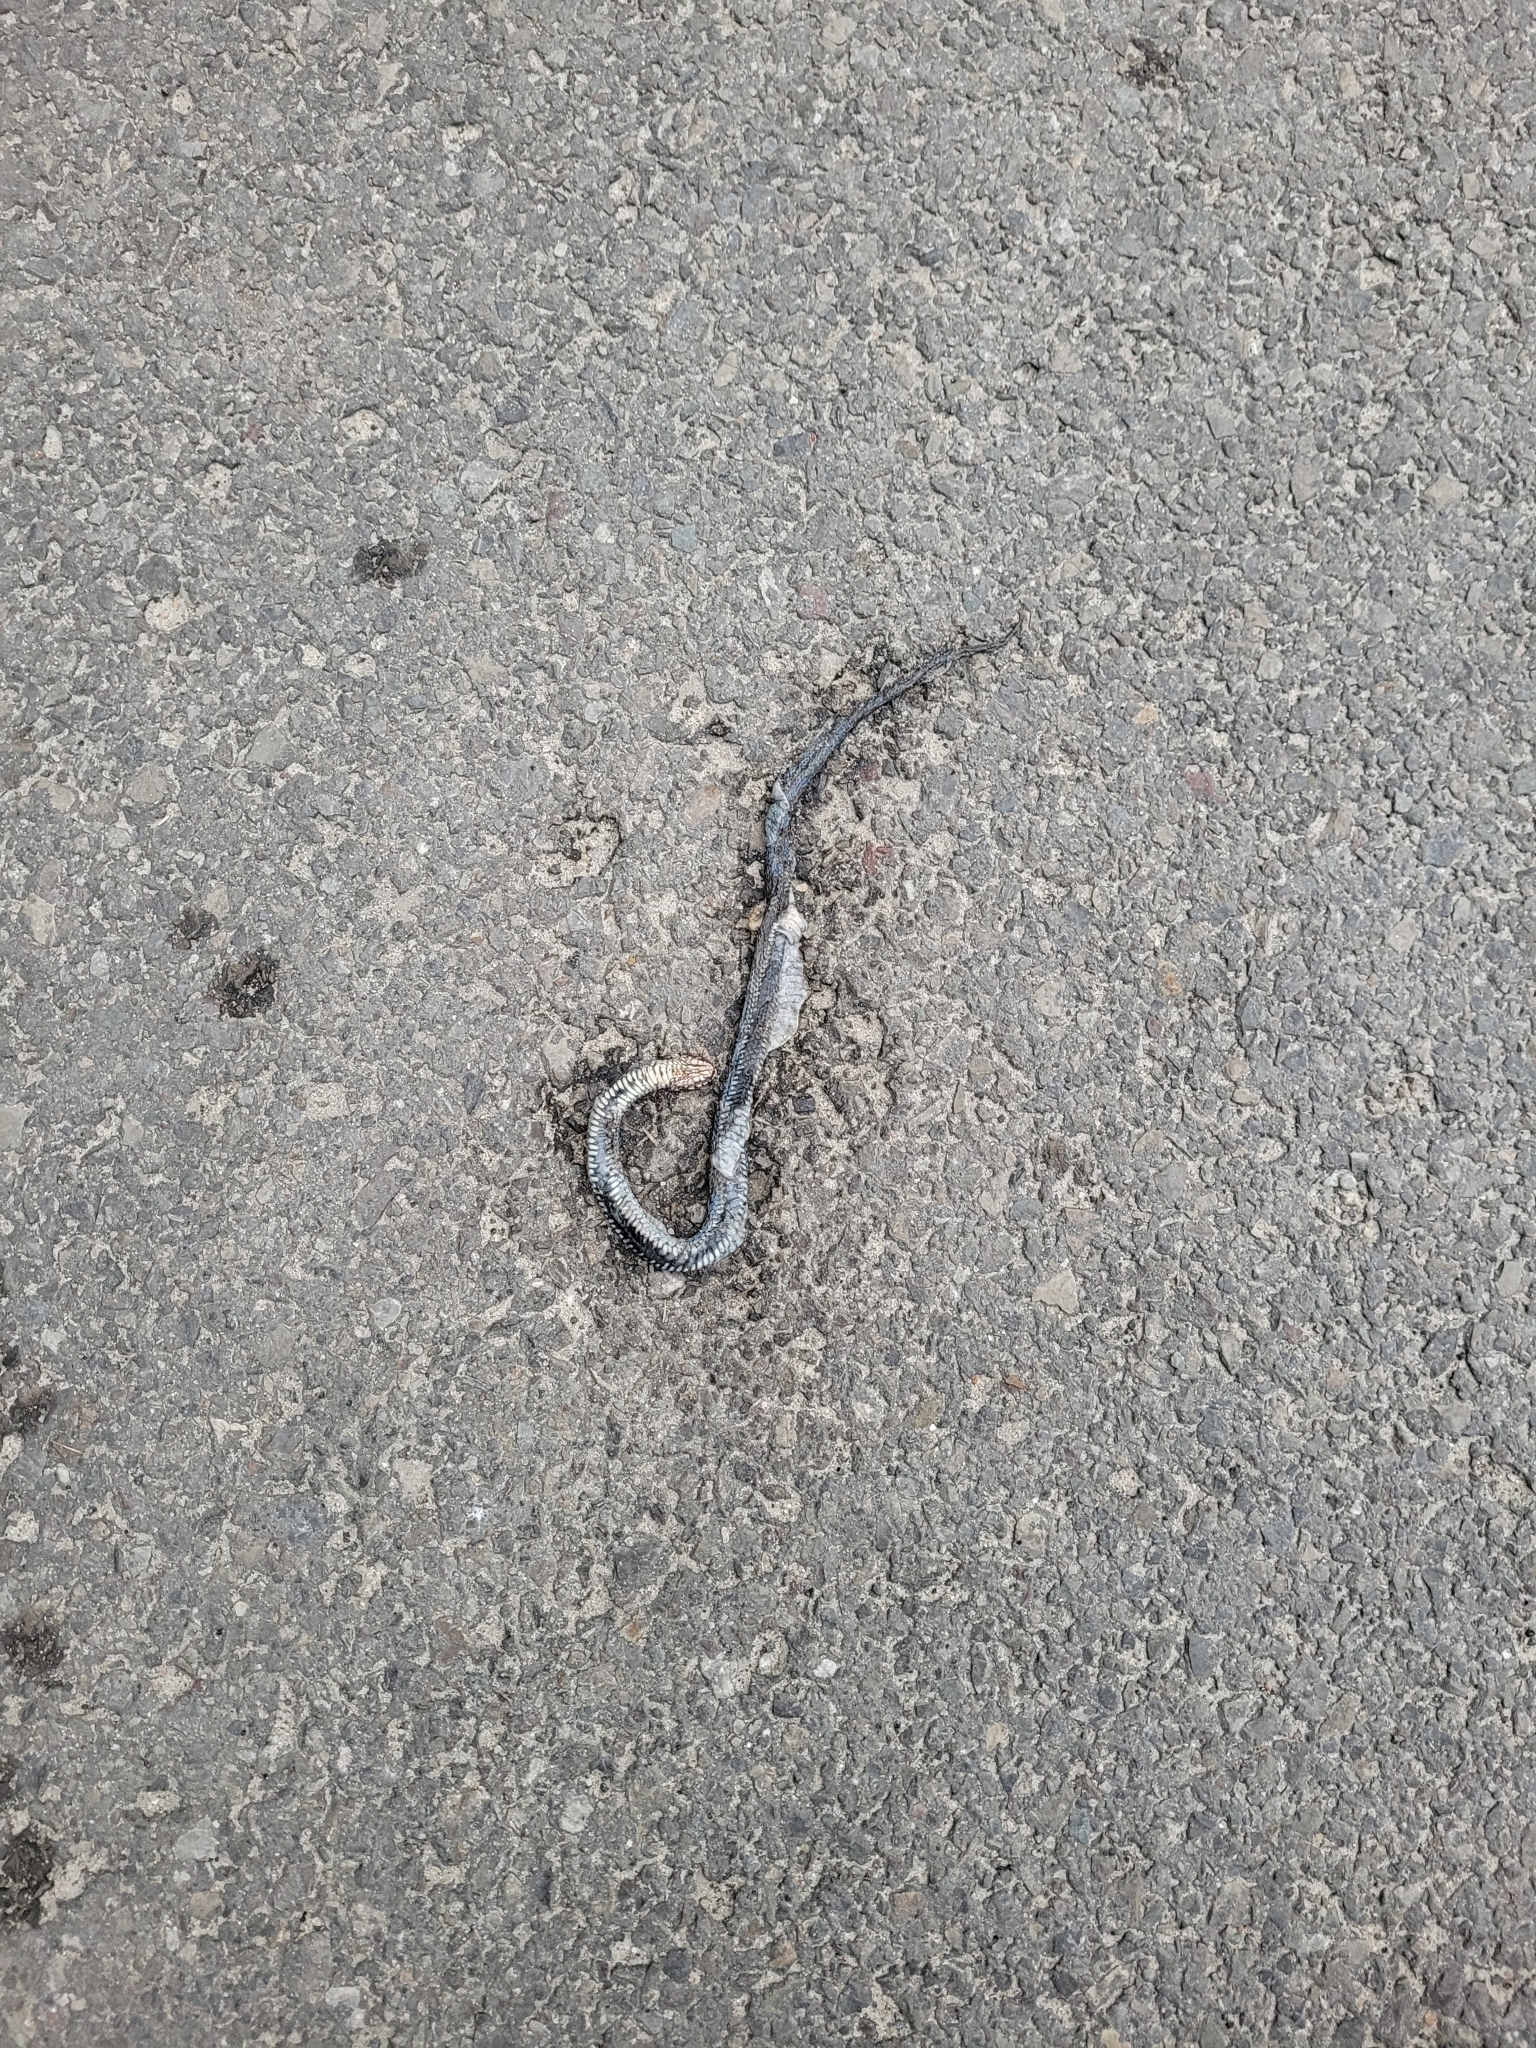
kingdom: Animalia
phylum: Chordata
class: Squamata
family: Colubridae
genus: Natrix
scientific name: Natrix natrix
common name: Grass snake
